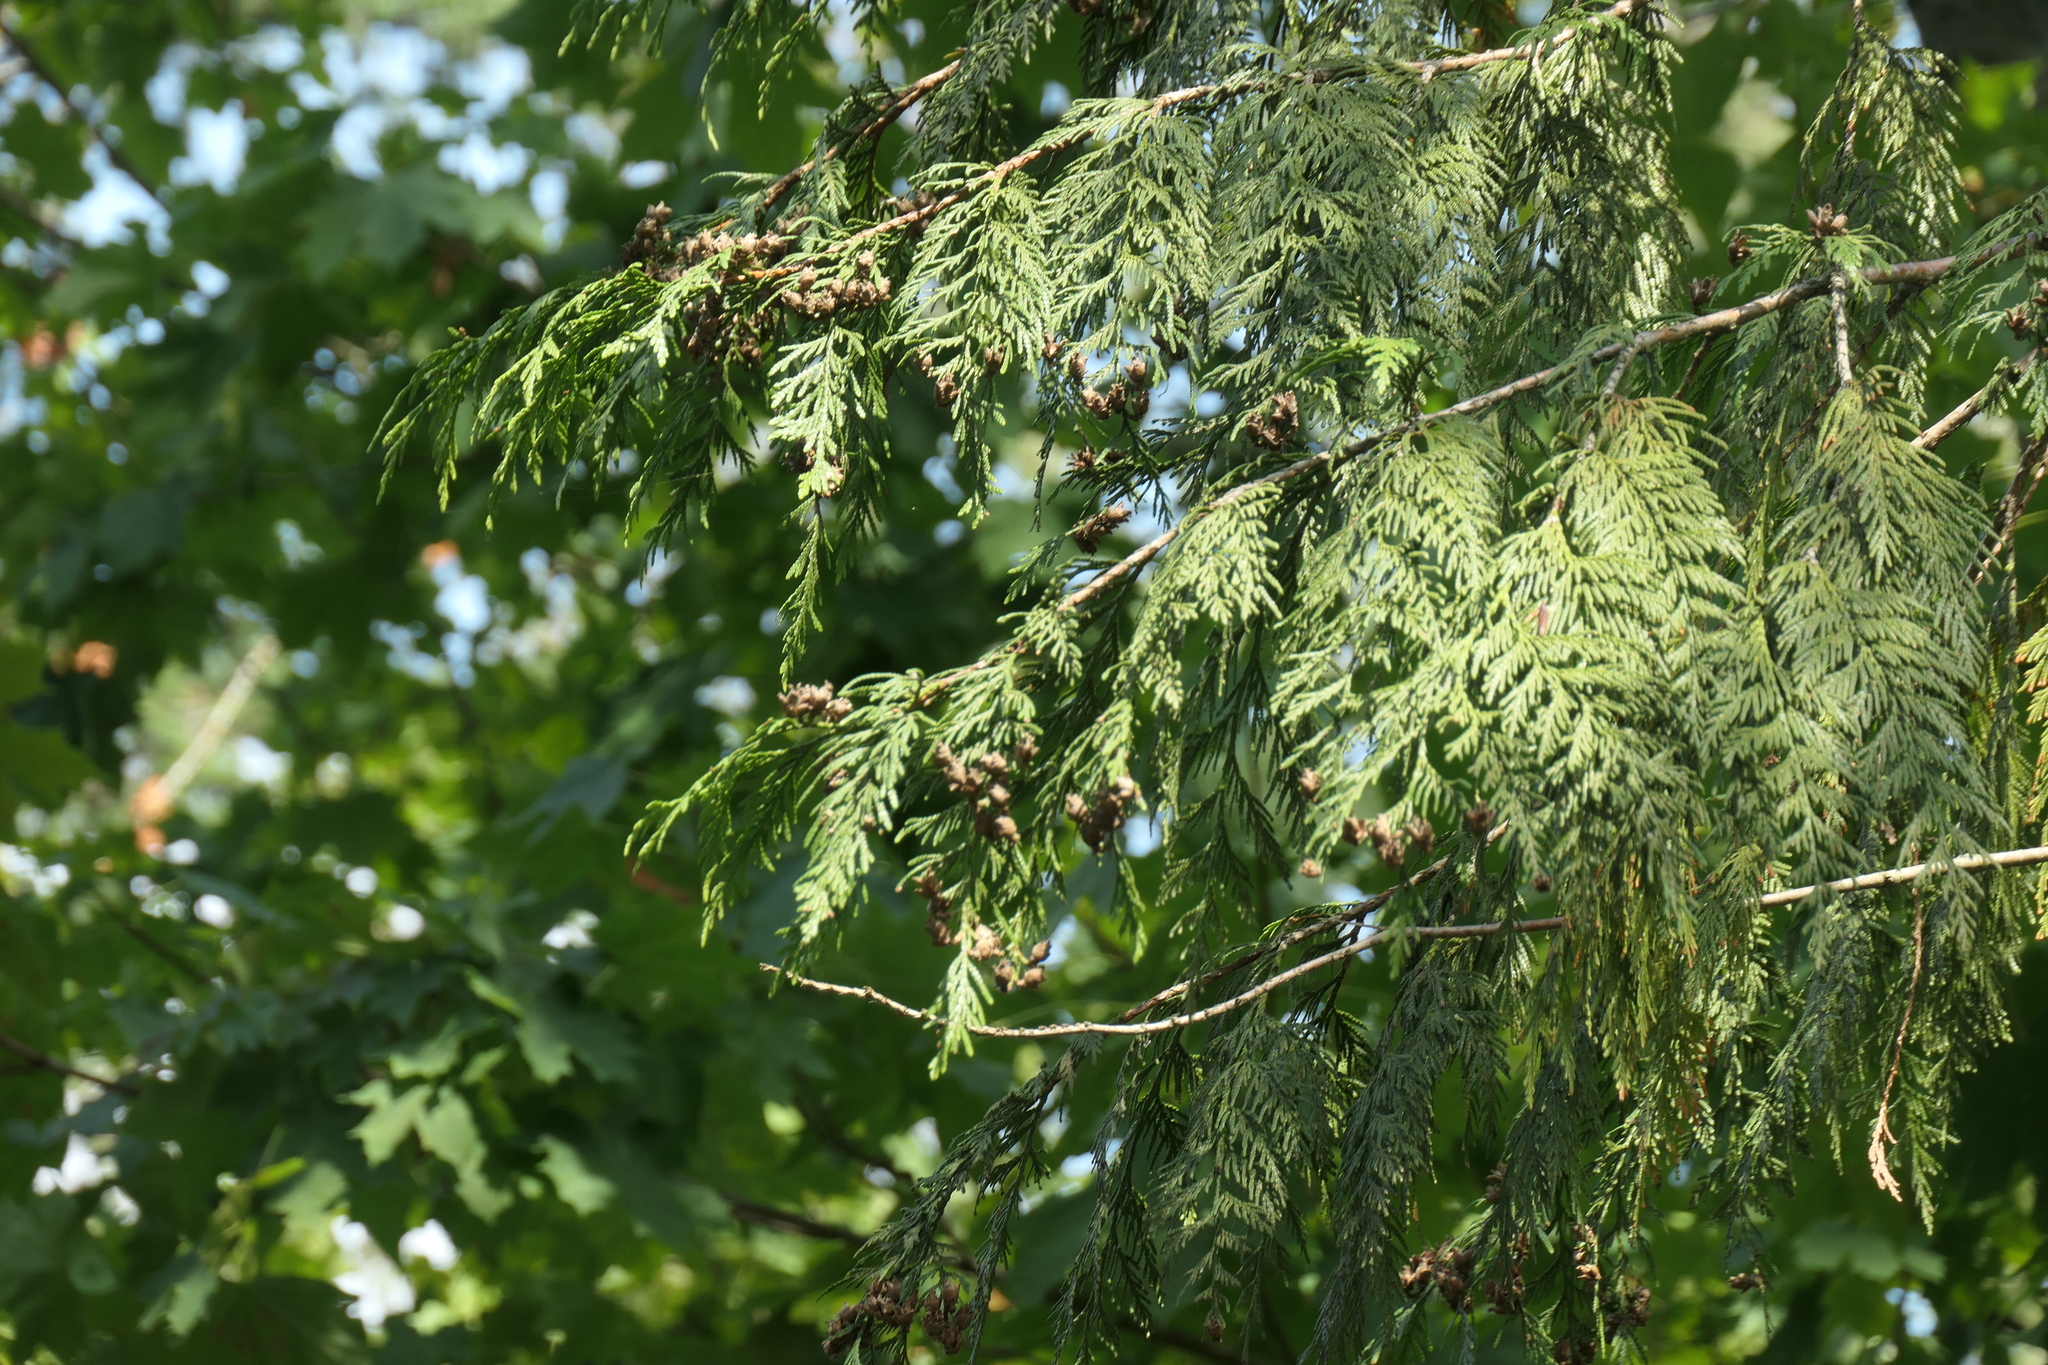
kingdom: Plantae
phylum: Tracheophyta
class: Pinopsida
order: Pinales
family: Cupressaceae
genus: Thuja
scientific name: Thuja plicata
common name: Western red-cedar
